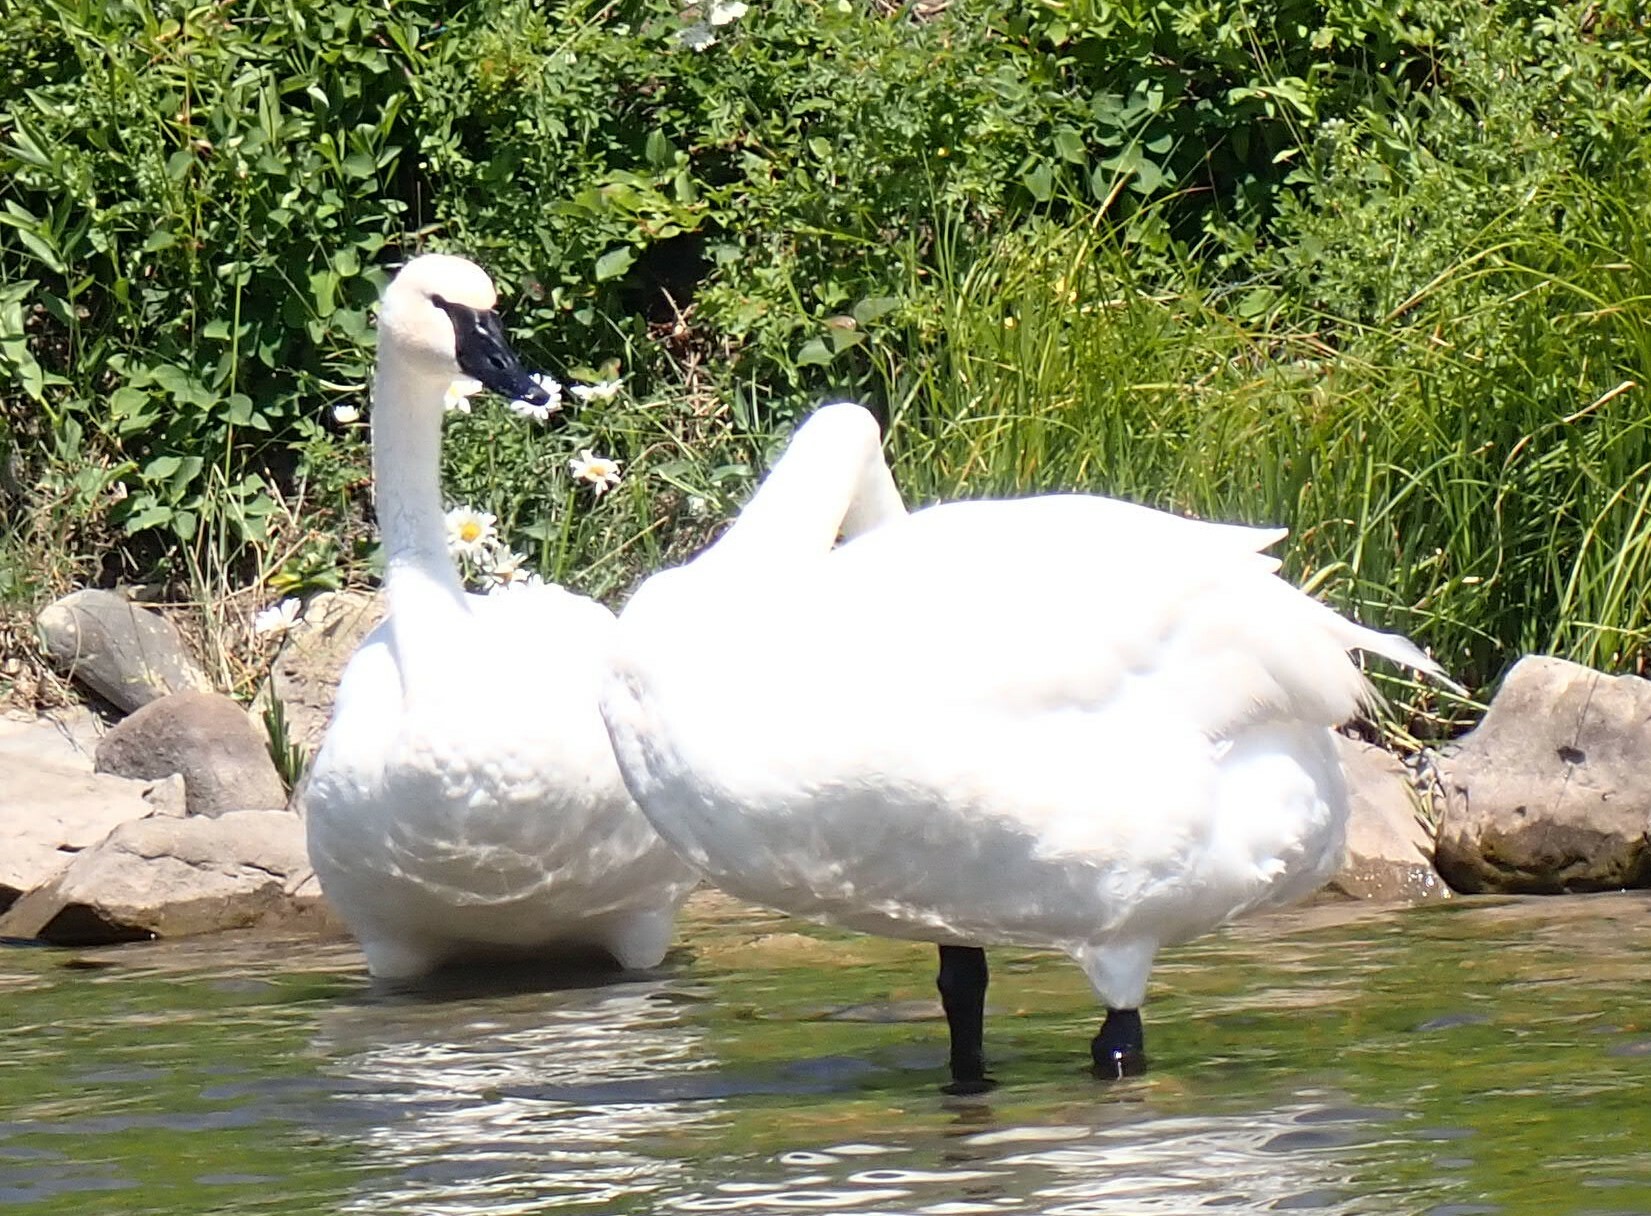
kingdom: Animalia
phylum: Chordata
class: Aves
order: Anseriformes
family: Anatidae
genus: Cygnus
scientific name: Cygnus buccinator
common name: Trumpeter swan
